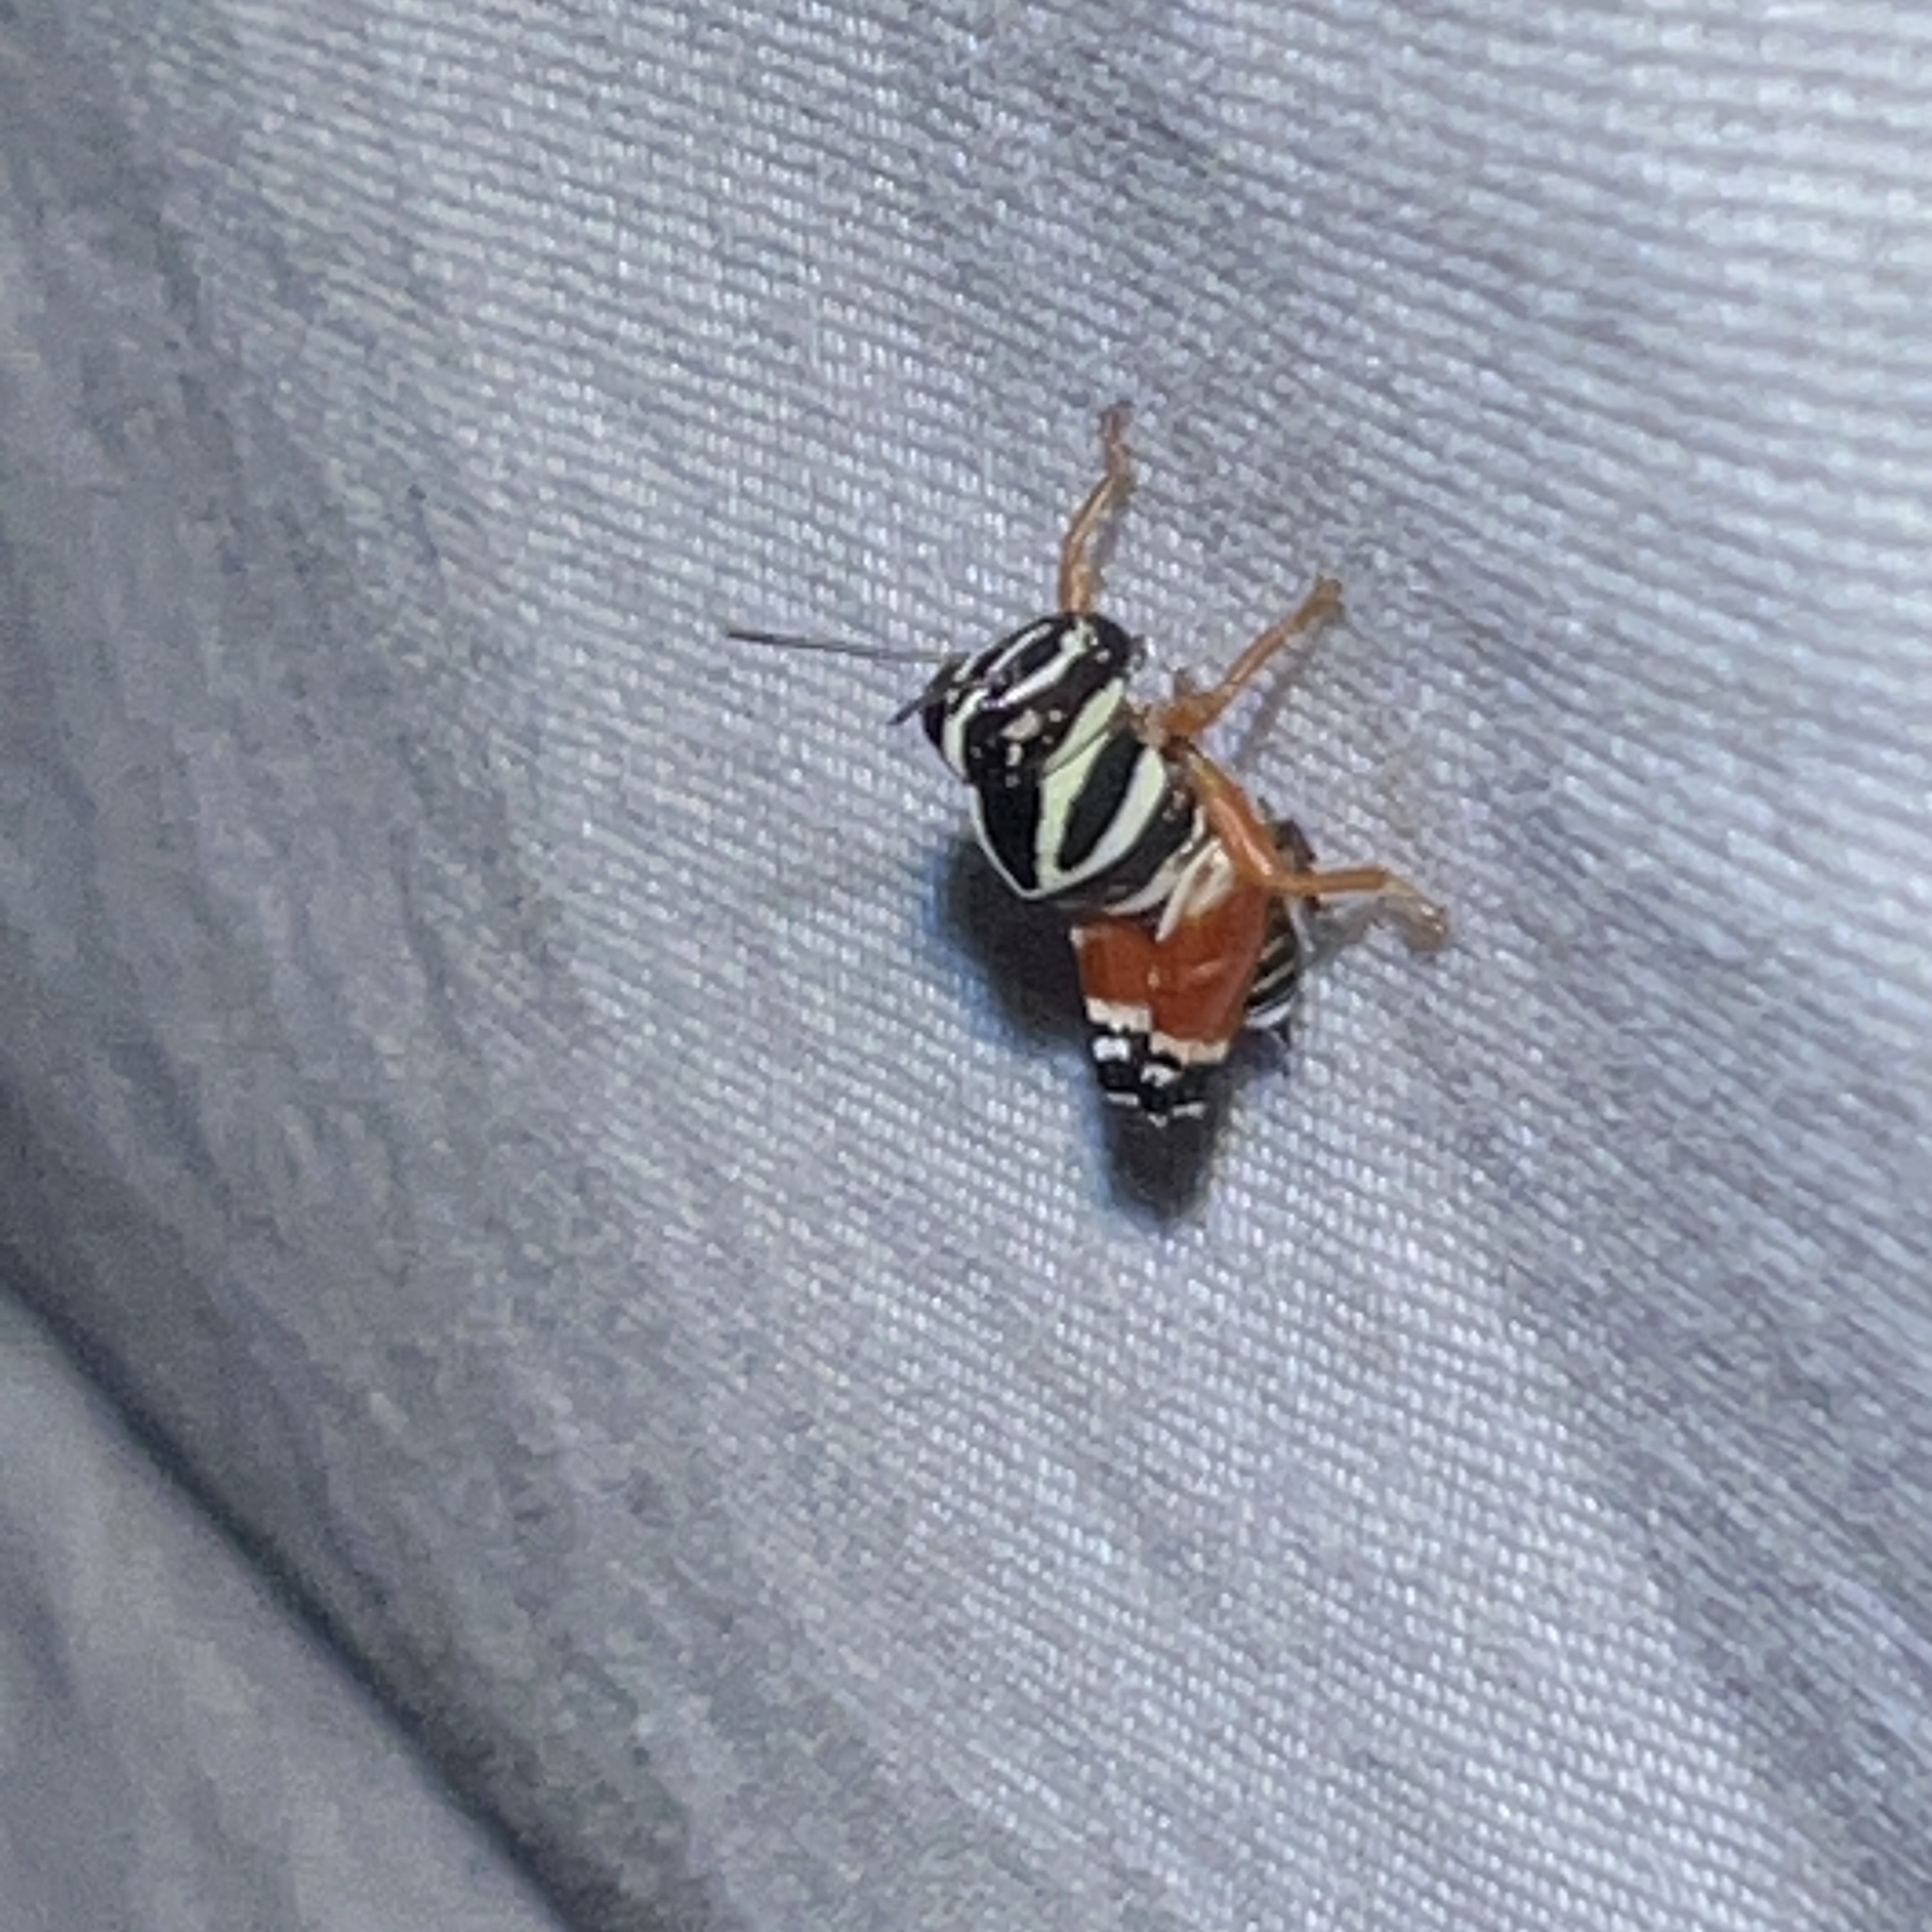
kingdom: Animalia
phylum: Arthropoda
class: Insecta
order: Orthoptera
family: Acrididae
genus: Aidemona
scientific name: Aidemona azteca
